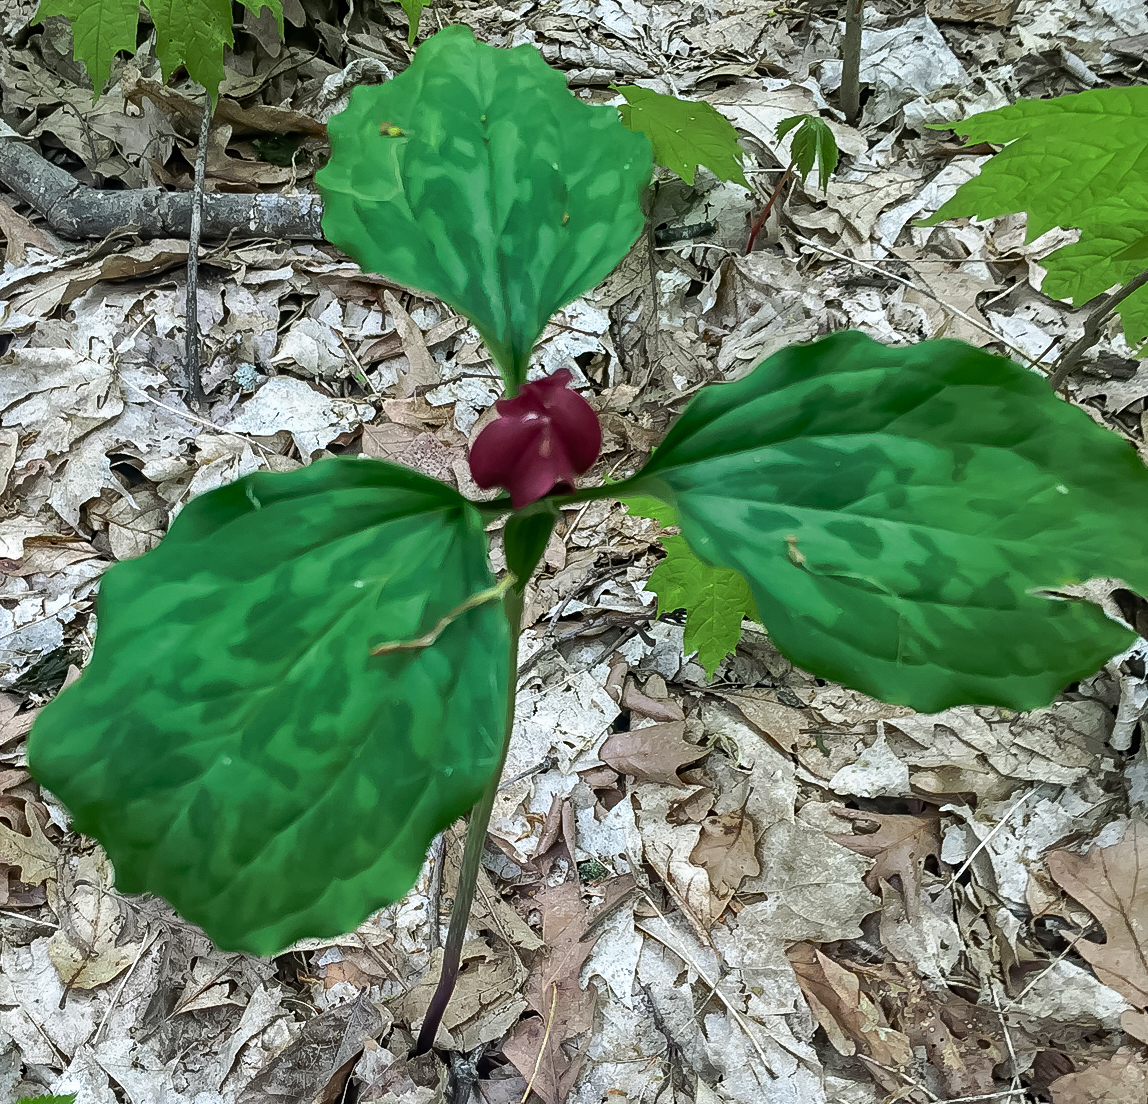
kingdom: Plantae
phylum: Tracheophyta
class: Liliopsida
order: Liliales
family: Melanthiaceae
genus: Trillium
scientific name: Trillium recurvatum
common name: Bloody butcher
